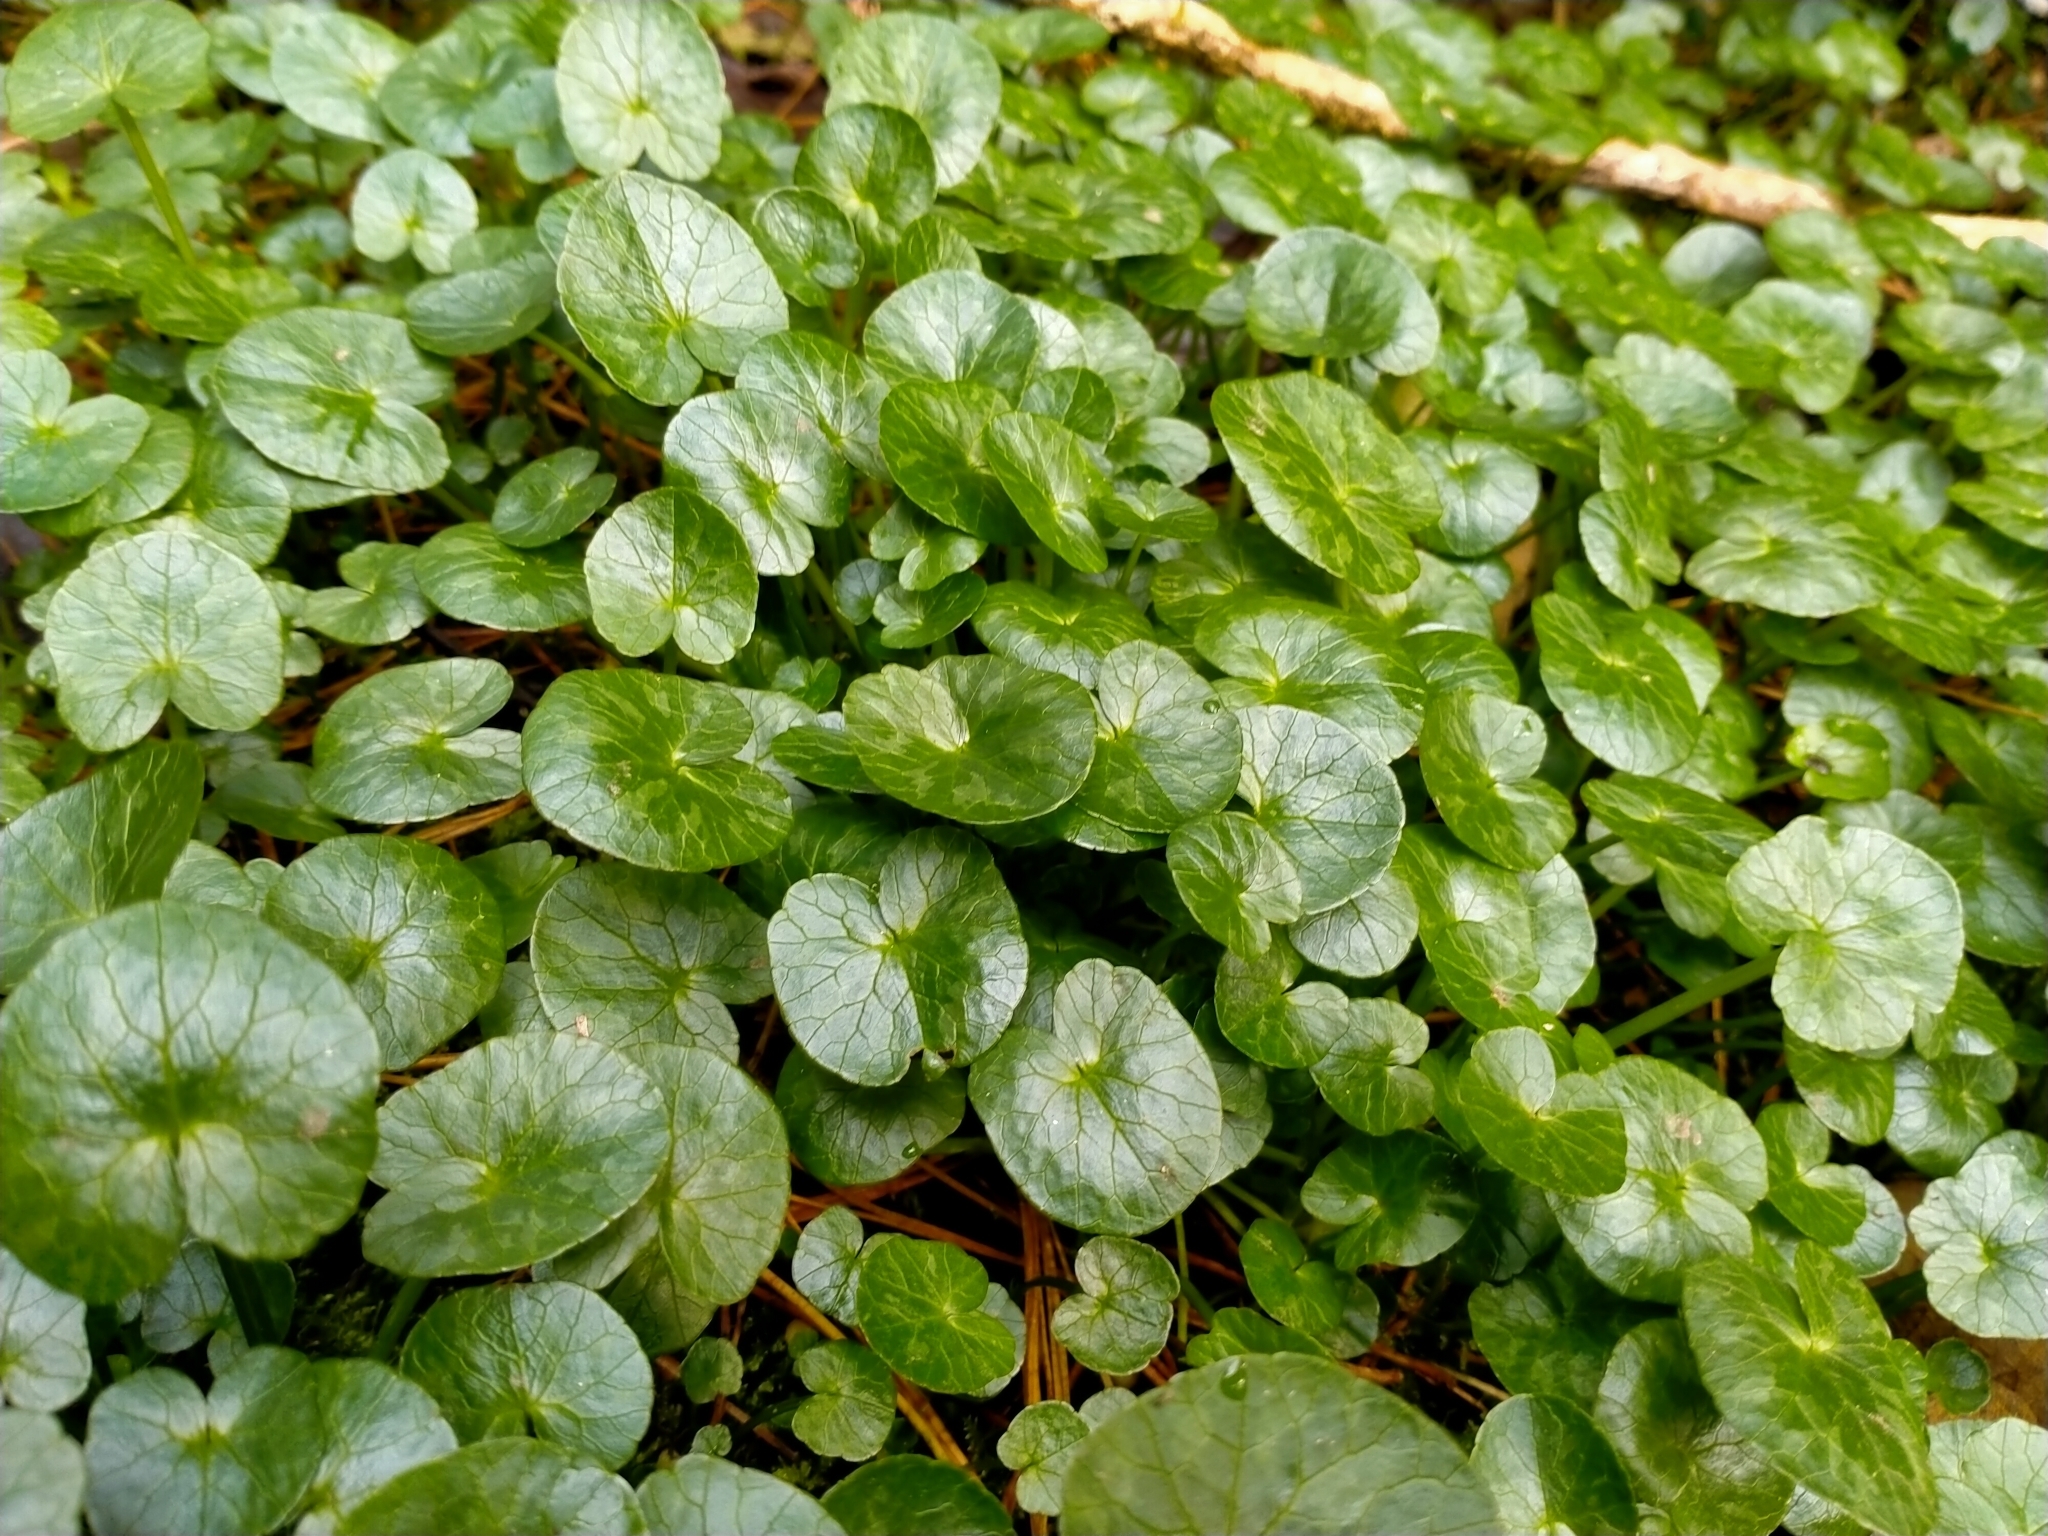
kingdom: Plantae
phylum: Tracheophyta
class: Magnoliopsida
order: Ranunculales
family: Ranunculaceae
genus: Ficaria
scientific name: Ficaria verna
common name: Lesser celandine
